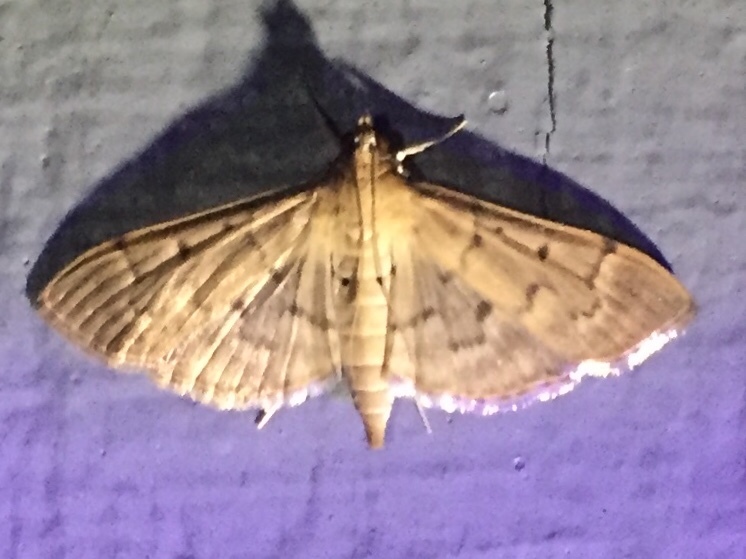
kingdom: Animalia
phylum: Arthropoda
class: Insecta
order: Lepidoptera
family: Crambidae
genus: Herpetogramma
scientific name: Herpetogramma bipunctalis
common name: Southern beet webworm
